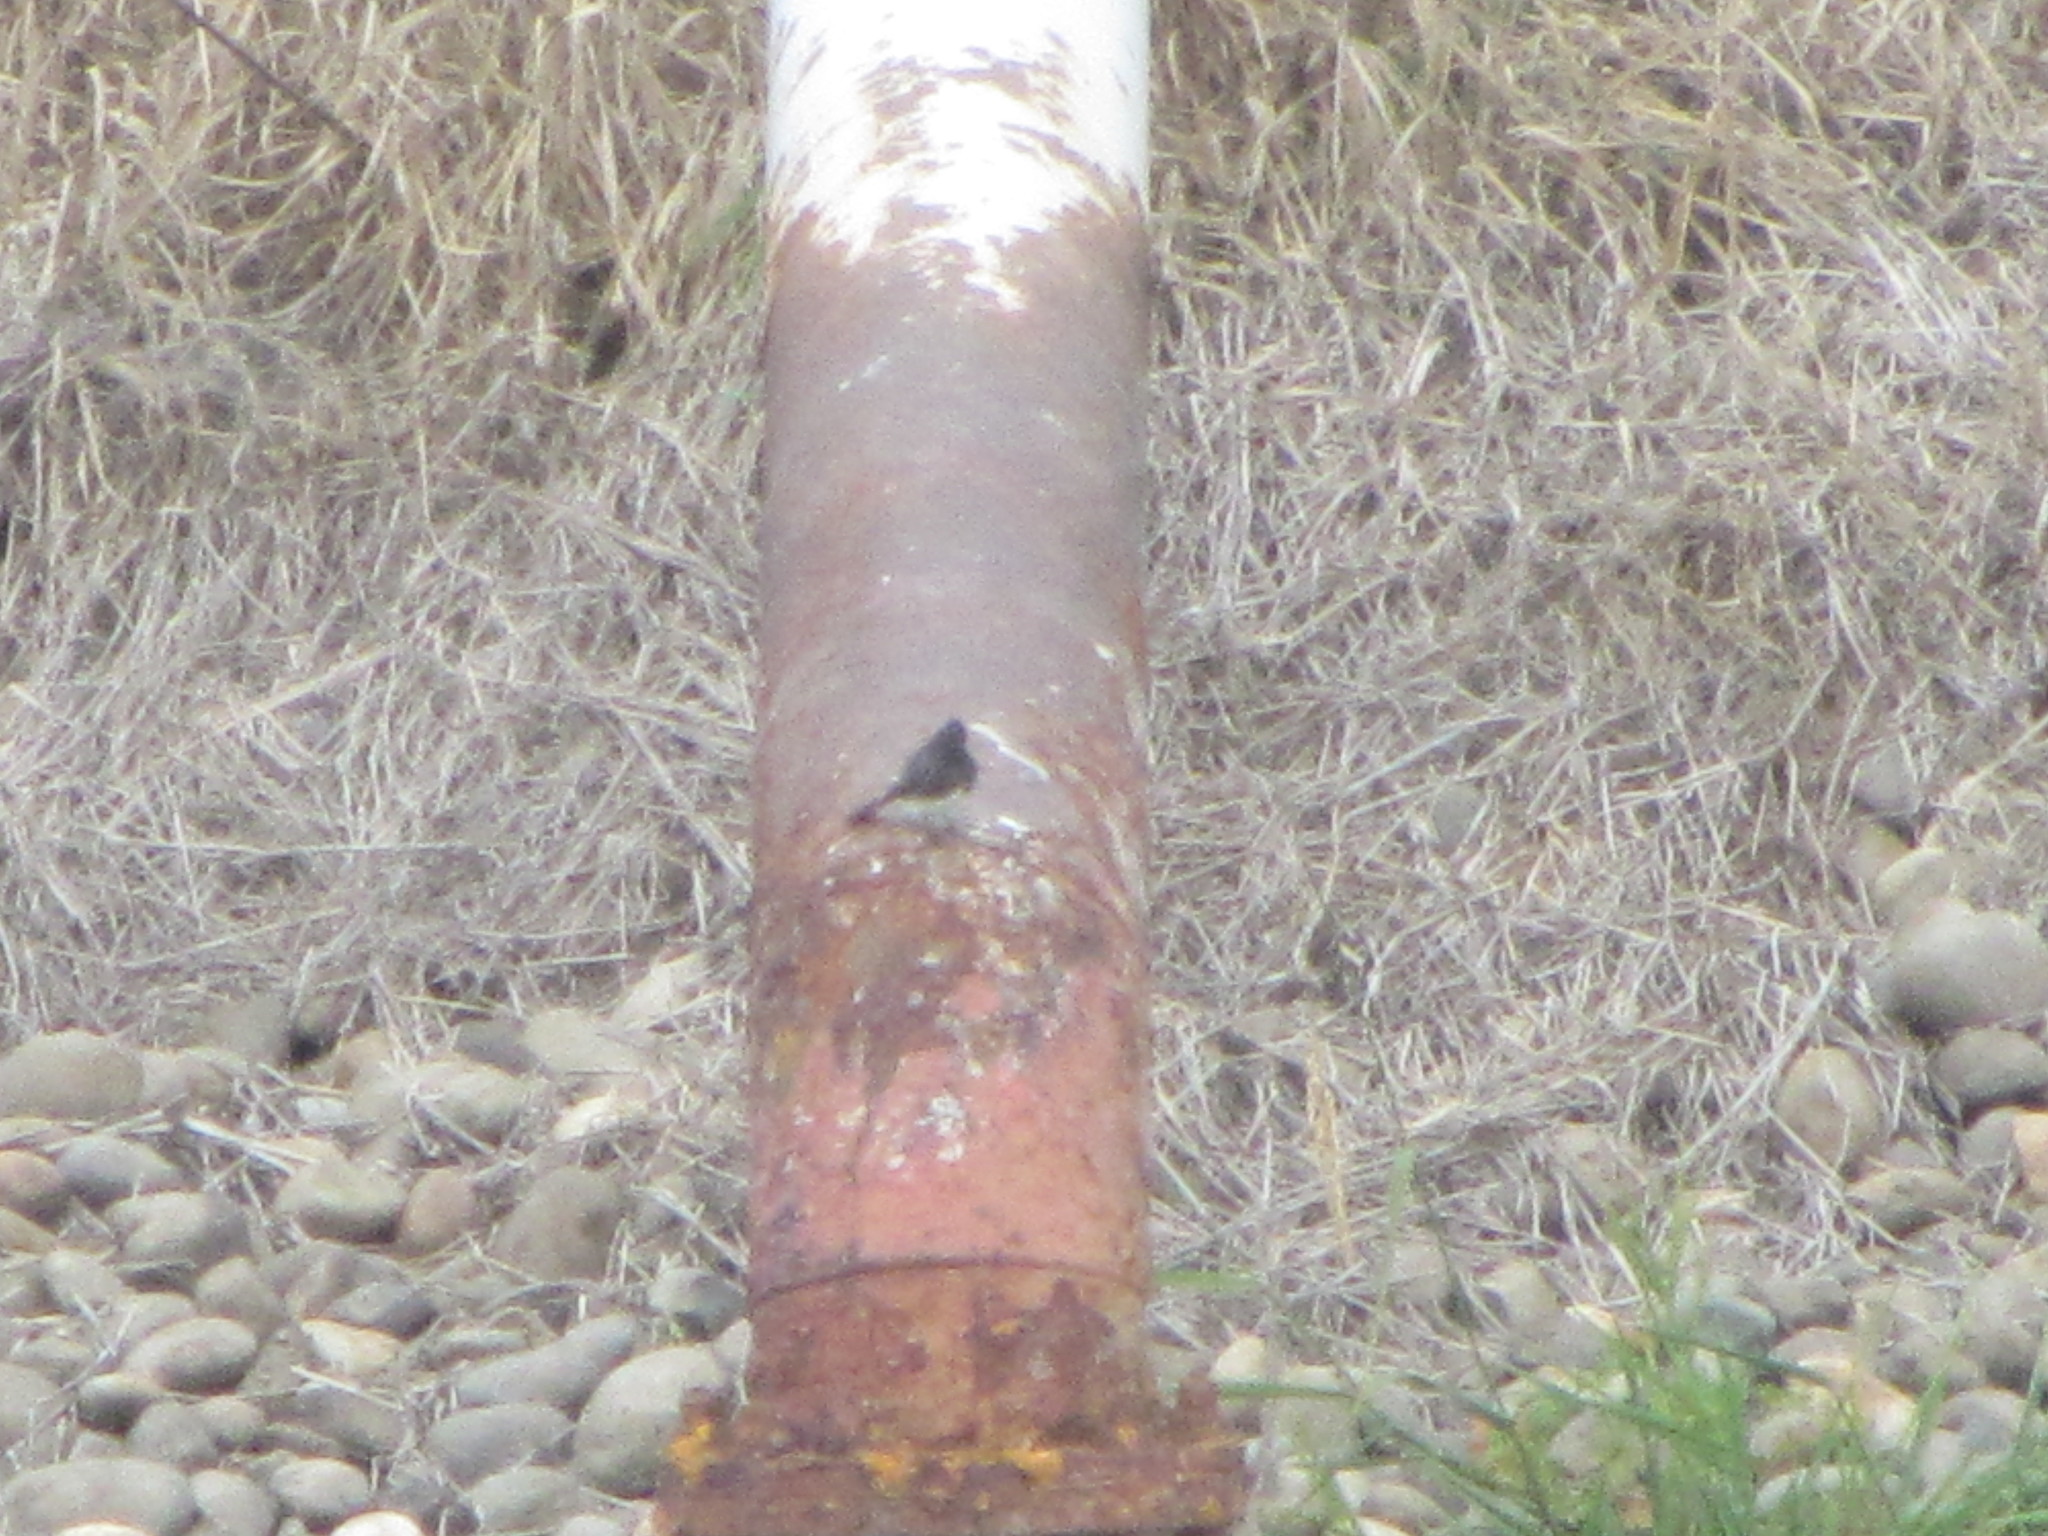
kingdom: Animalia
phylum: Chordata
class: Aves
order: Passeriformes
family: Tyrannidae
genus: Sayornis
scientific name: Sayornis nigricans
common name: Black phoebe
